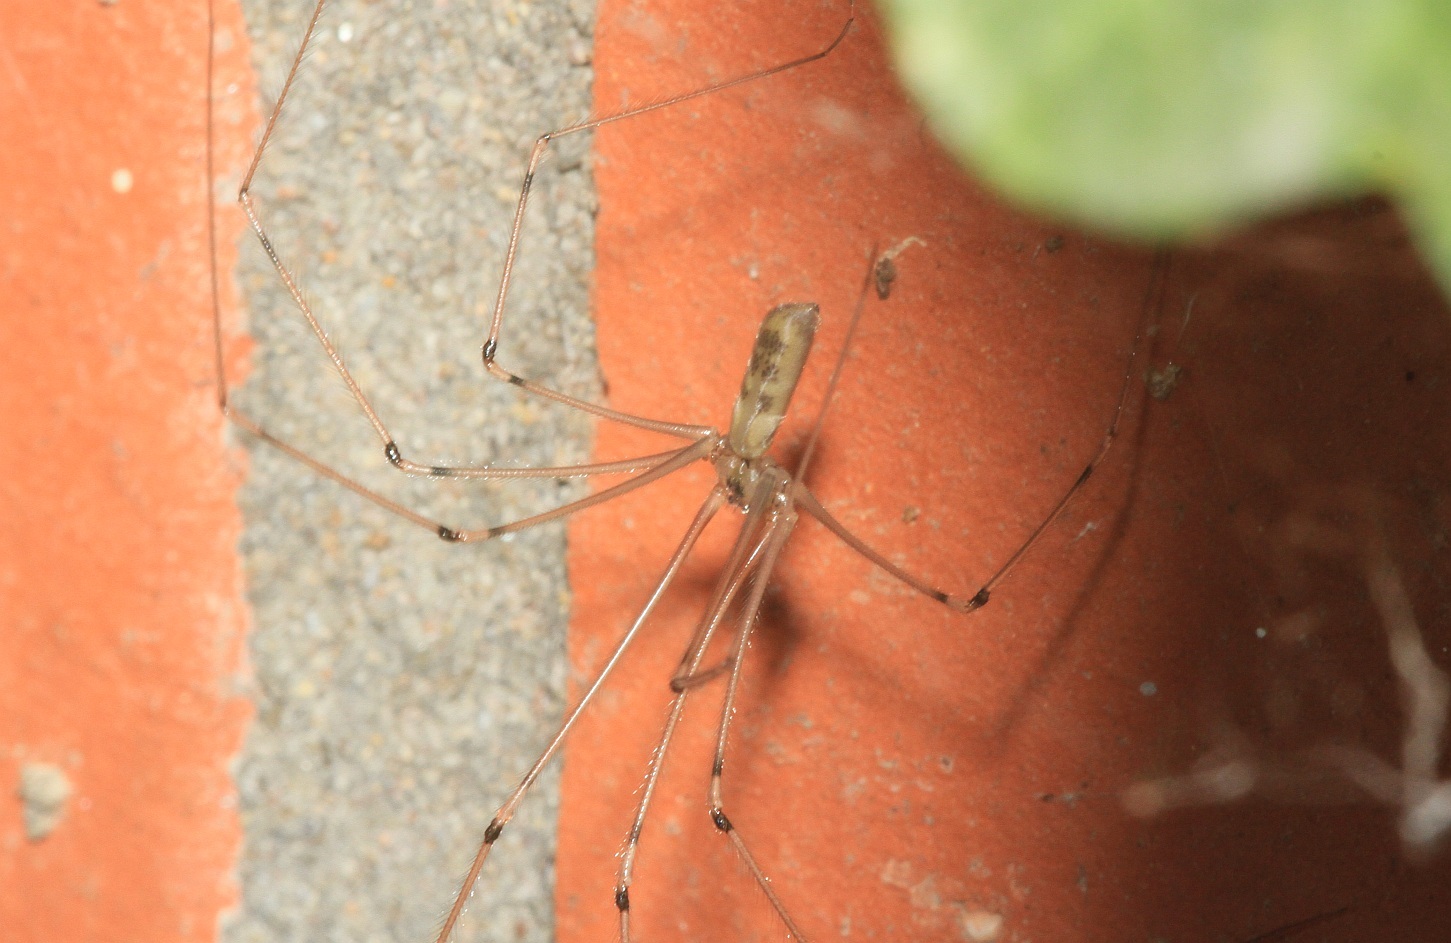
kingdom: Animalia
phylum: Arthropoda
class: Arachnida
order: Araneae
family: Pholcidae
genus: Pholcus
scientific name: Pholcus phalangioides
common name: Longbodied cellar spider
